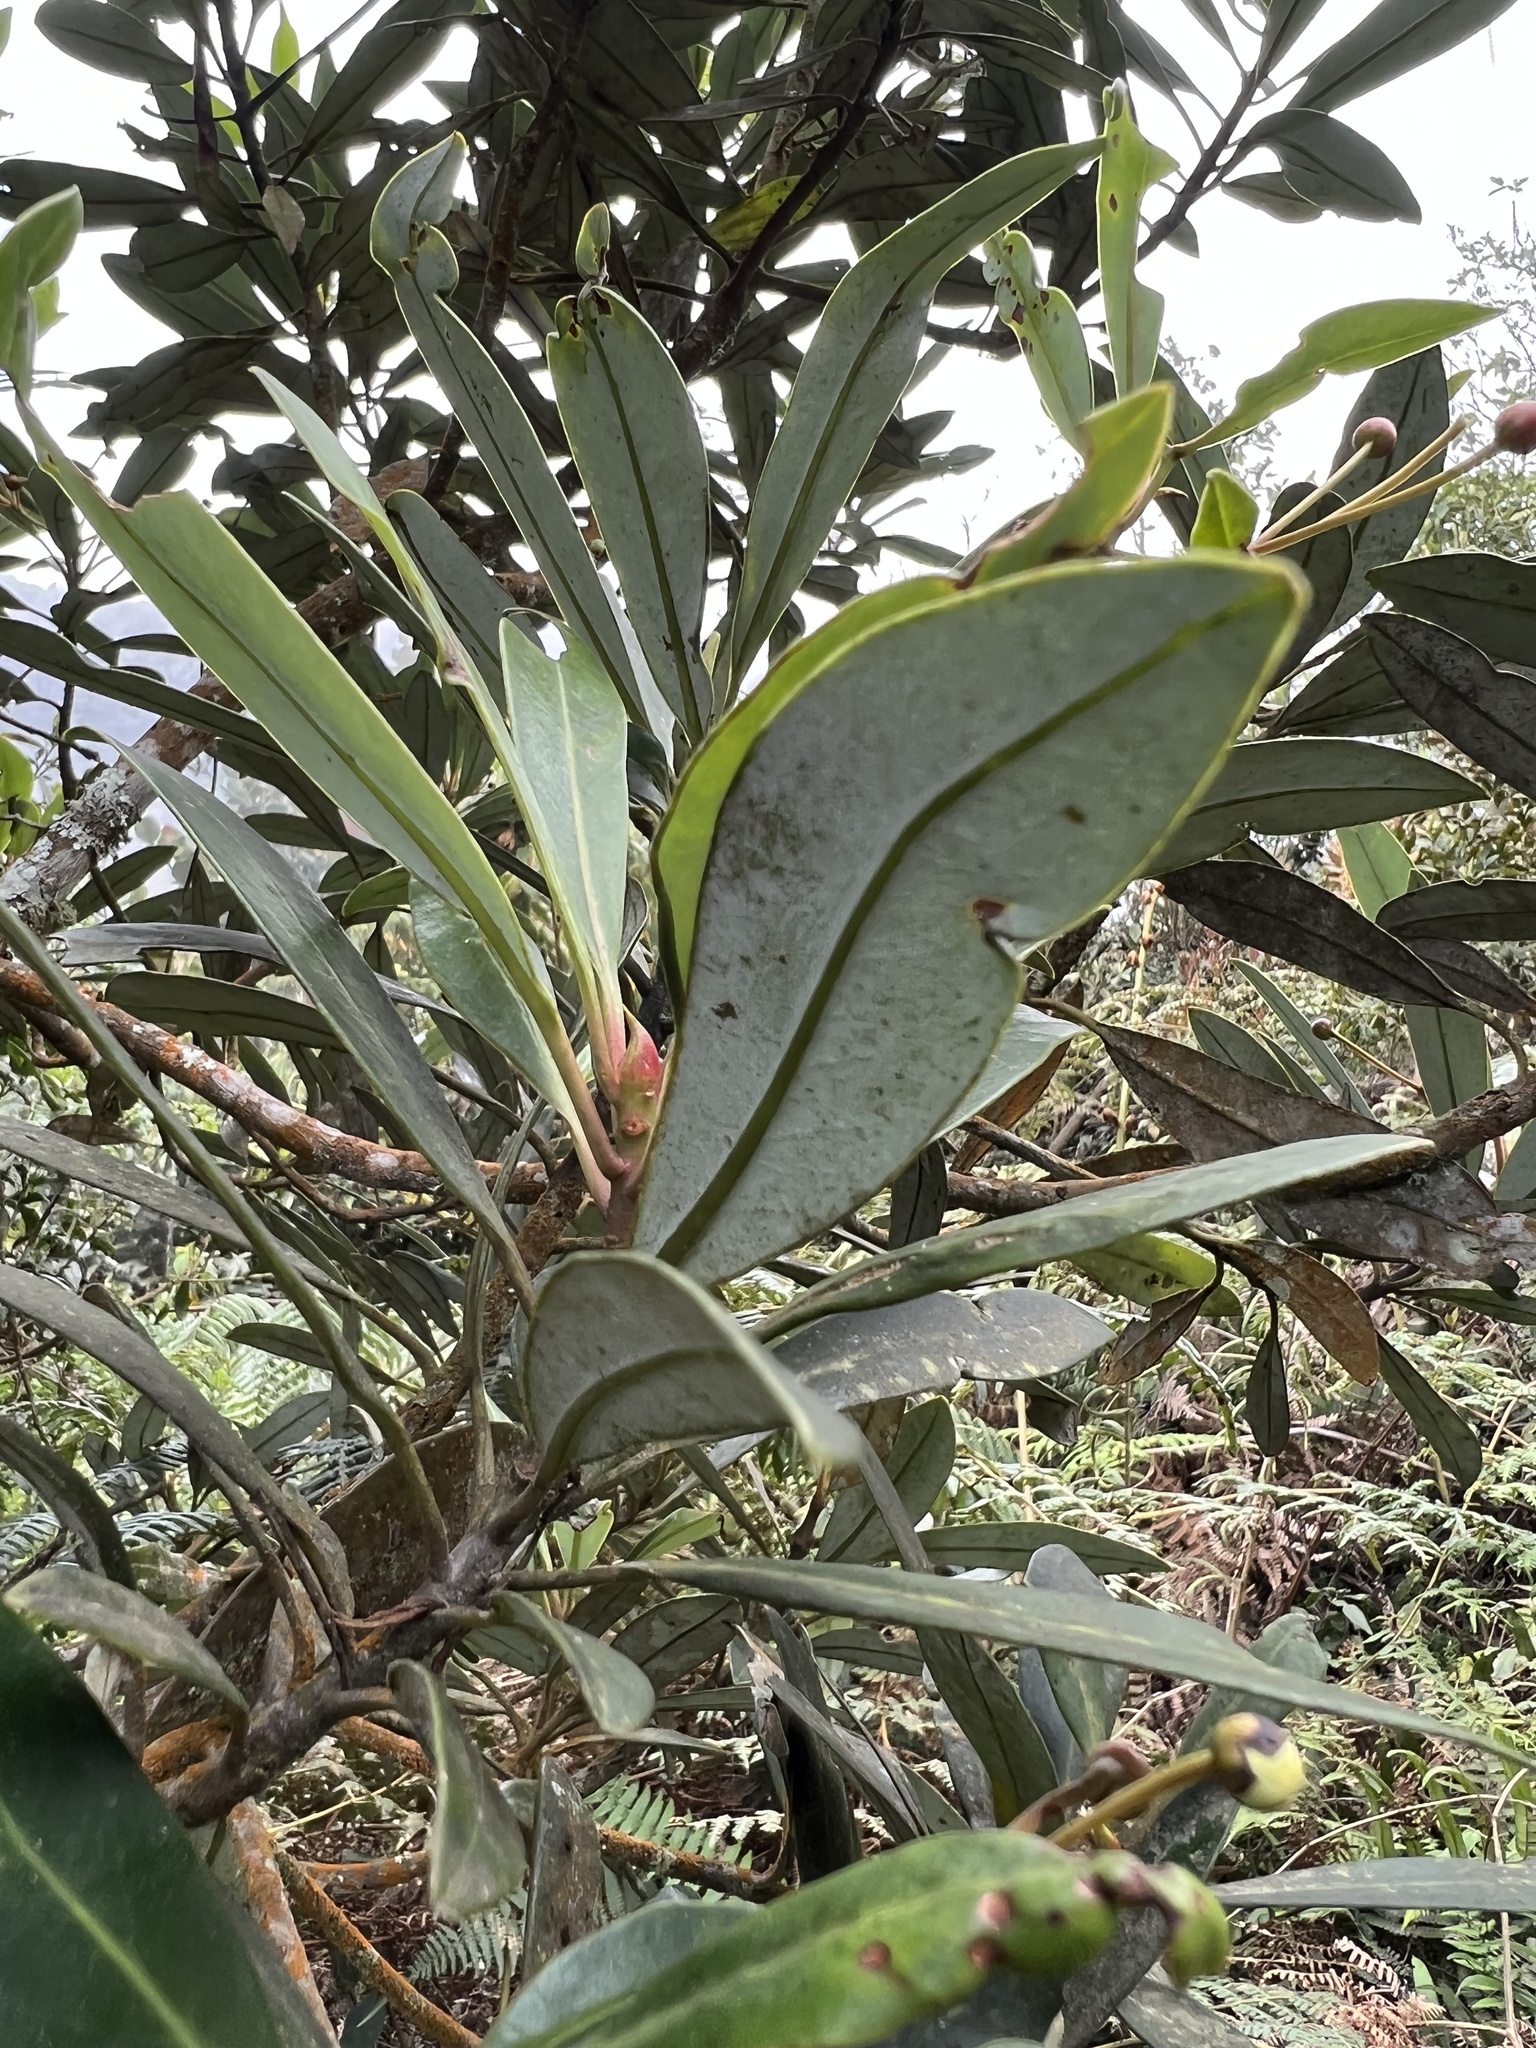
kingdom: Plantae
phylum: Tracheophyta
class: Magnoliopsida
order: Canellales
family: Winteraceae
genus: Drimys
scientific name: Drimys granadensis
